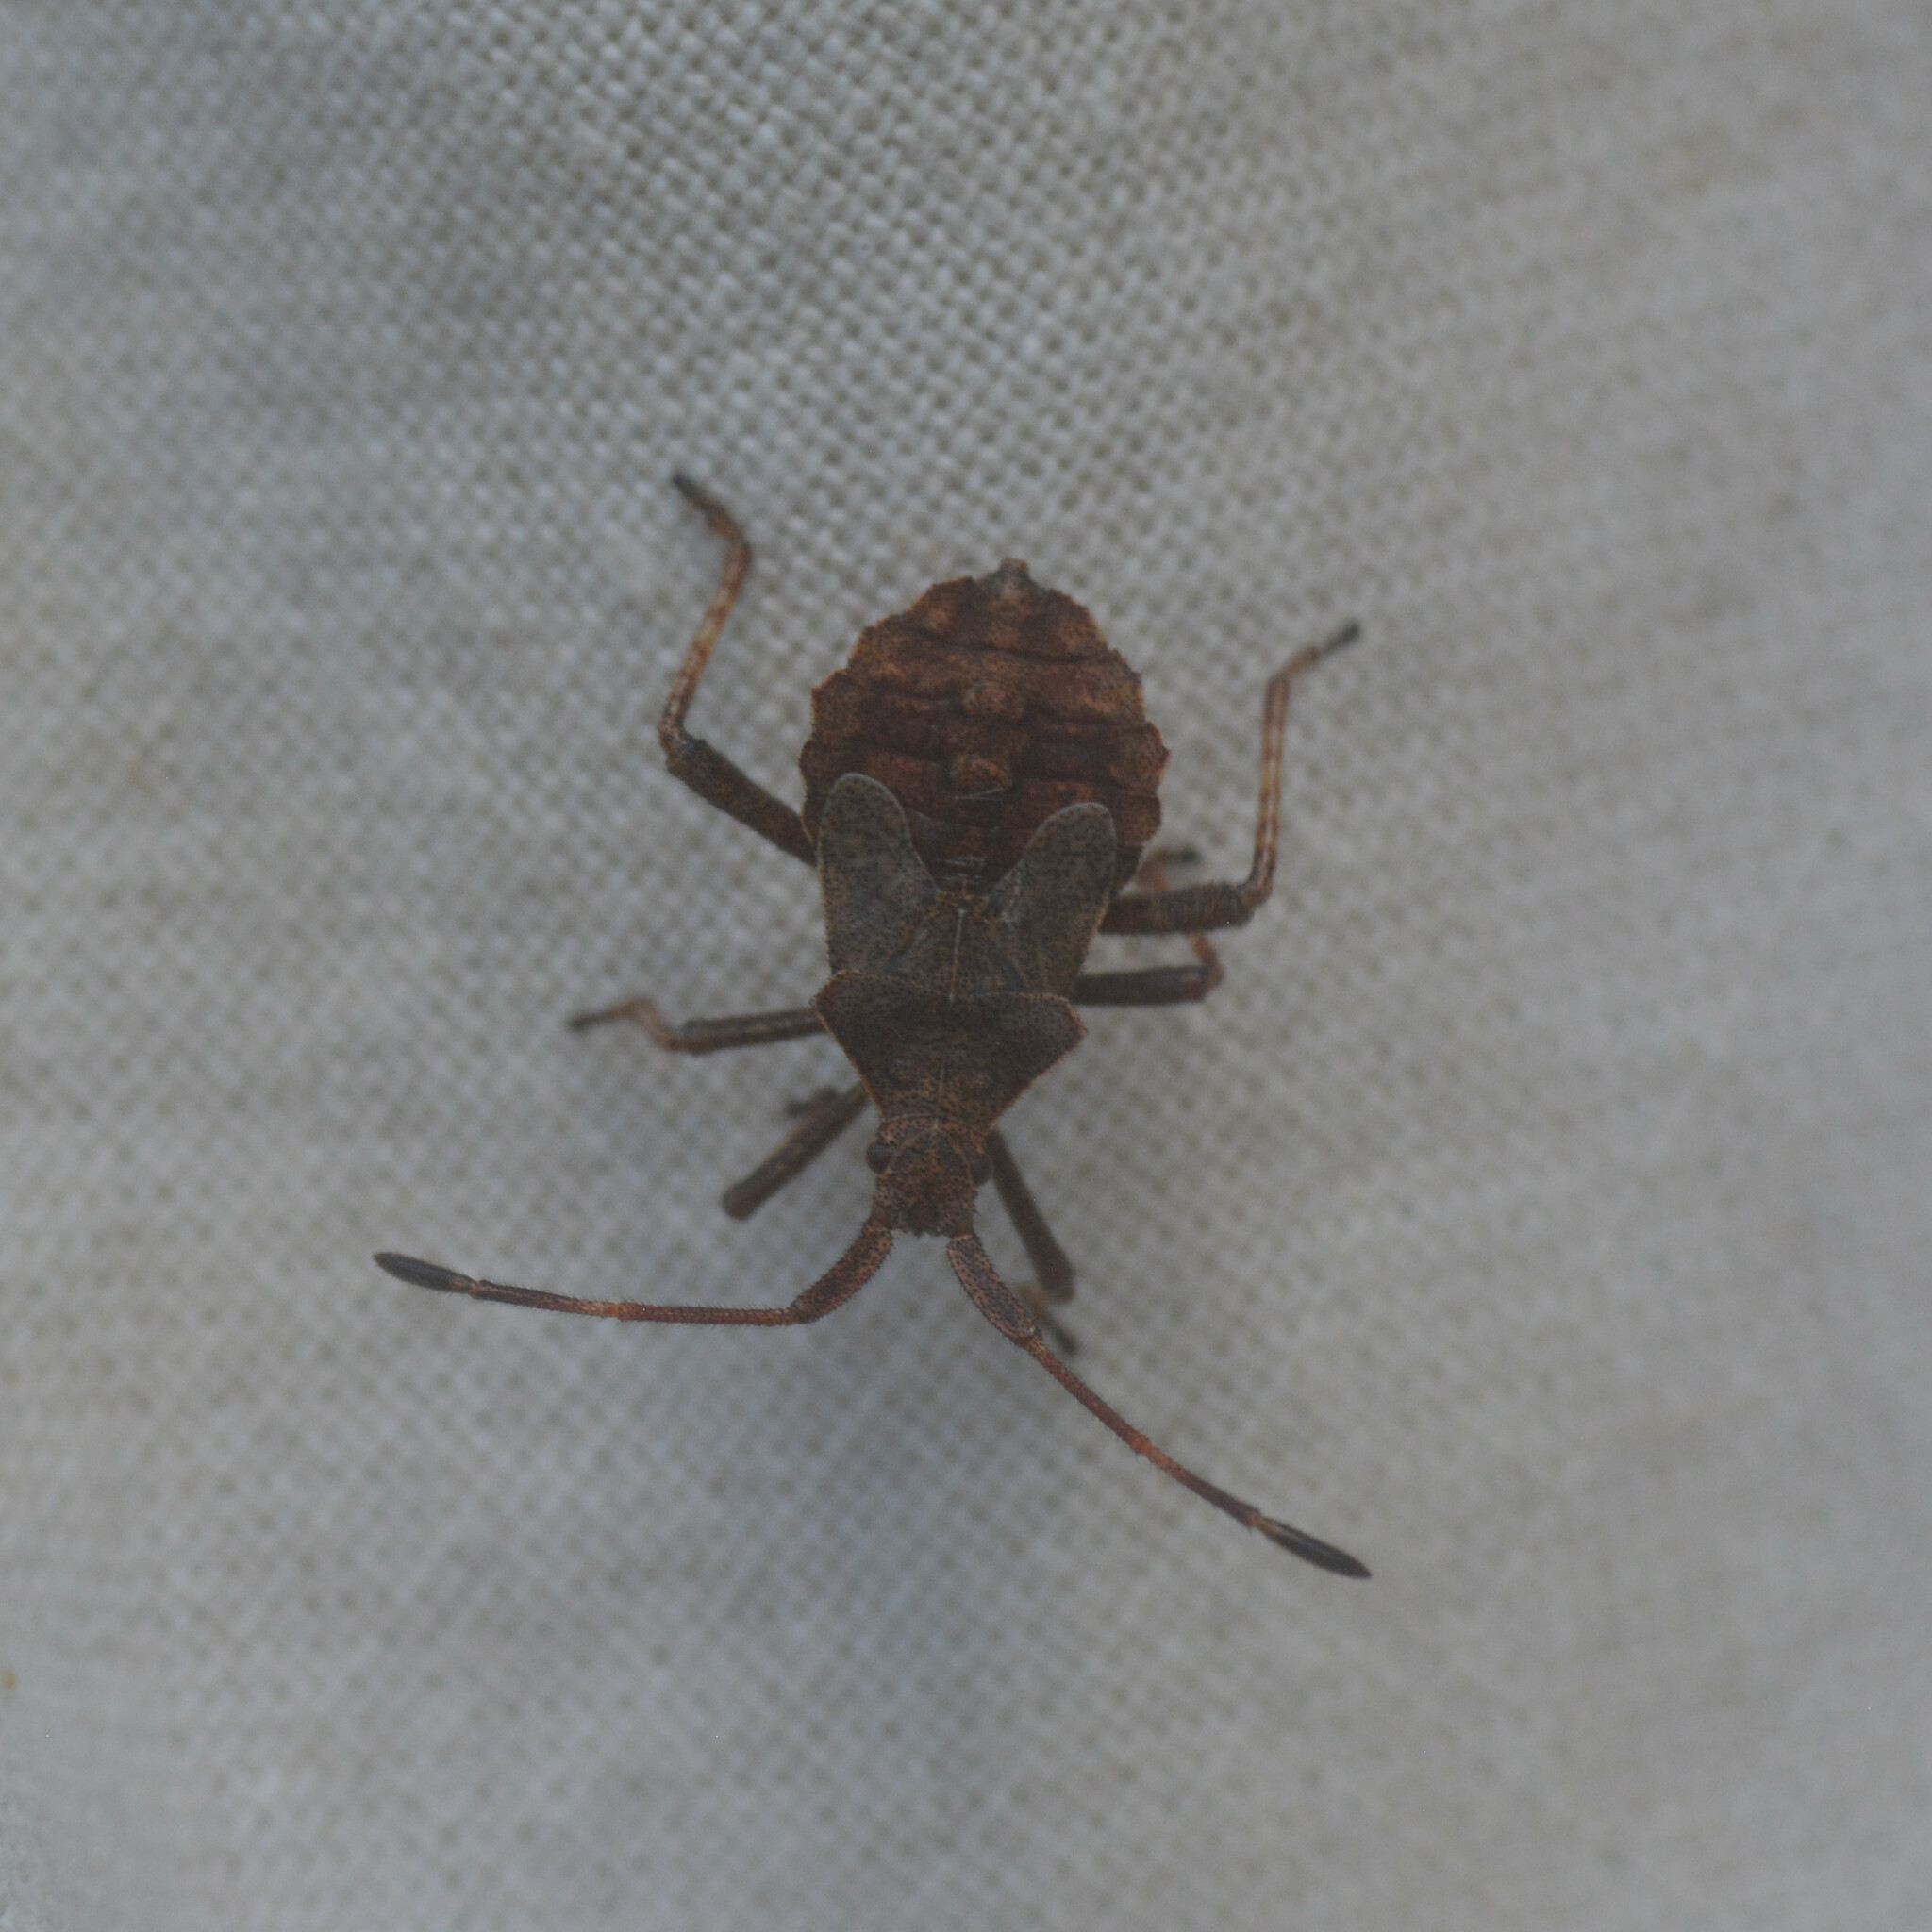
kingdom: Animalia
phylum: Arthropoda
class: Insecta
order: Hemiptera
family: Coreidae
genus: Coreus
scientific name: Coreus marginatus
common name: Dock bug
